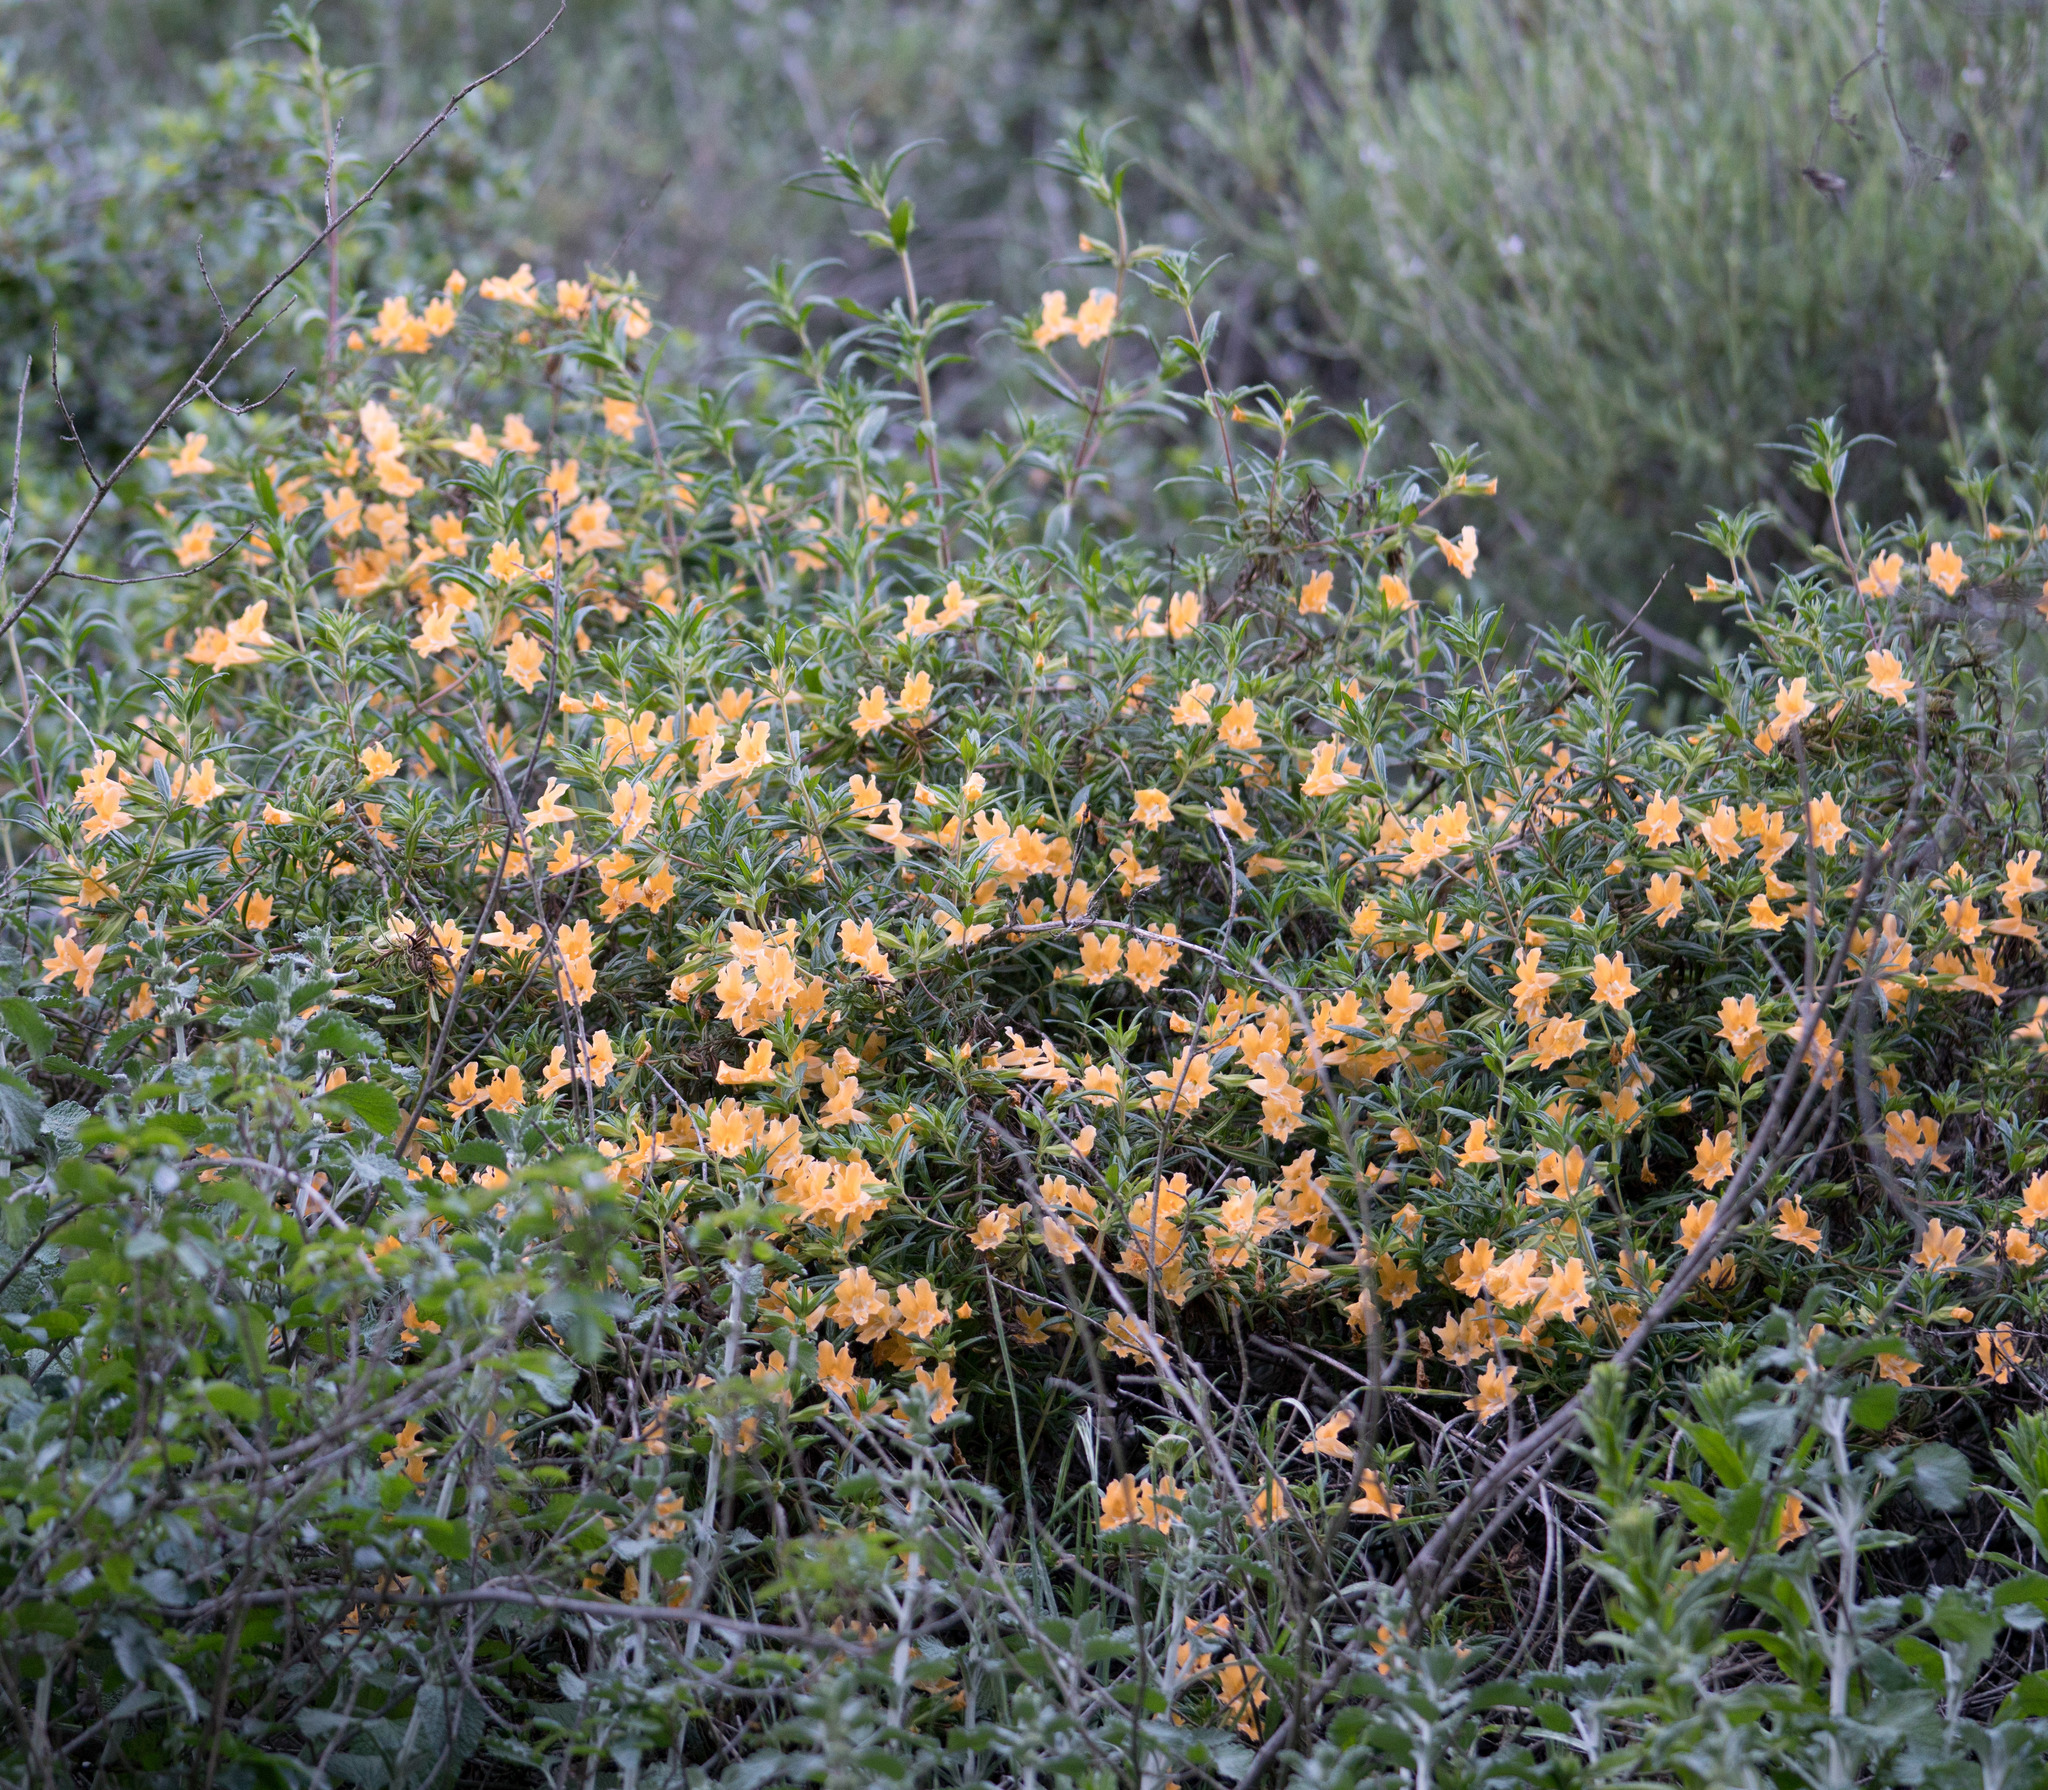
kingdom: Plantae
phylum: Tracheophyta
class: Magnoliopsida
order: Lamiales
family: Phrymaceae
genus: Diplacus
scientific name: Diplacus longiflorus
